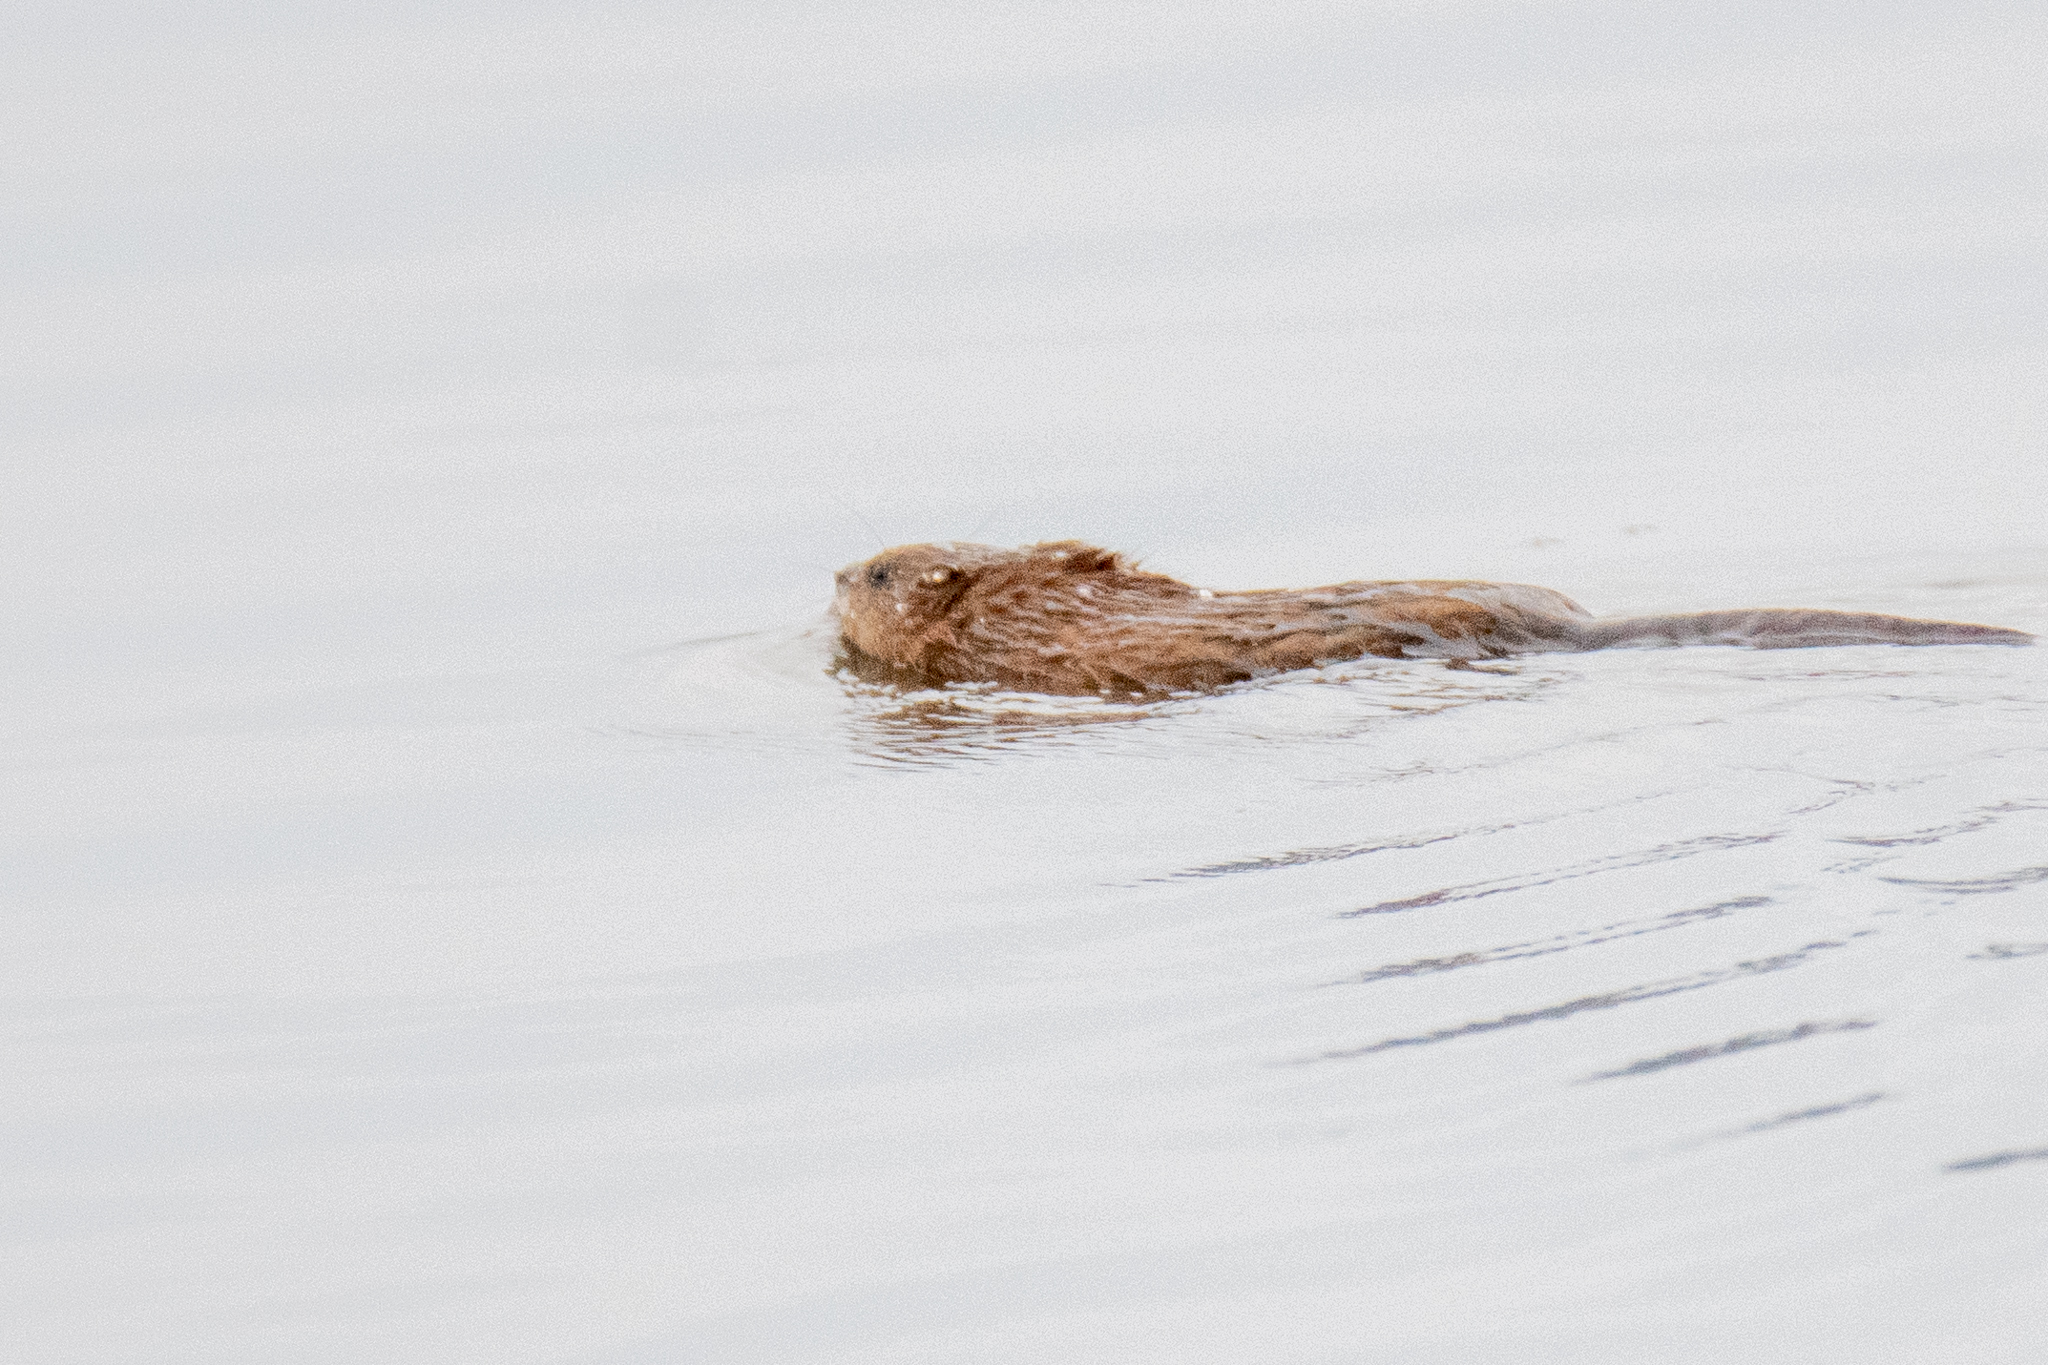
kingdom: Animalia
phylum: Chordata
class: Mammalia
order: Rodentia
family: Cricetidae
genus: Ondatra
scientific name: Ondatra zibethicus
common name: Muskrat
